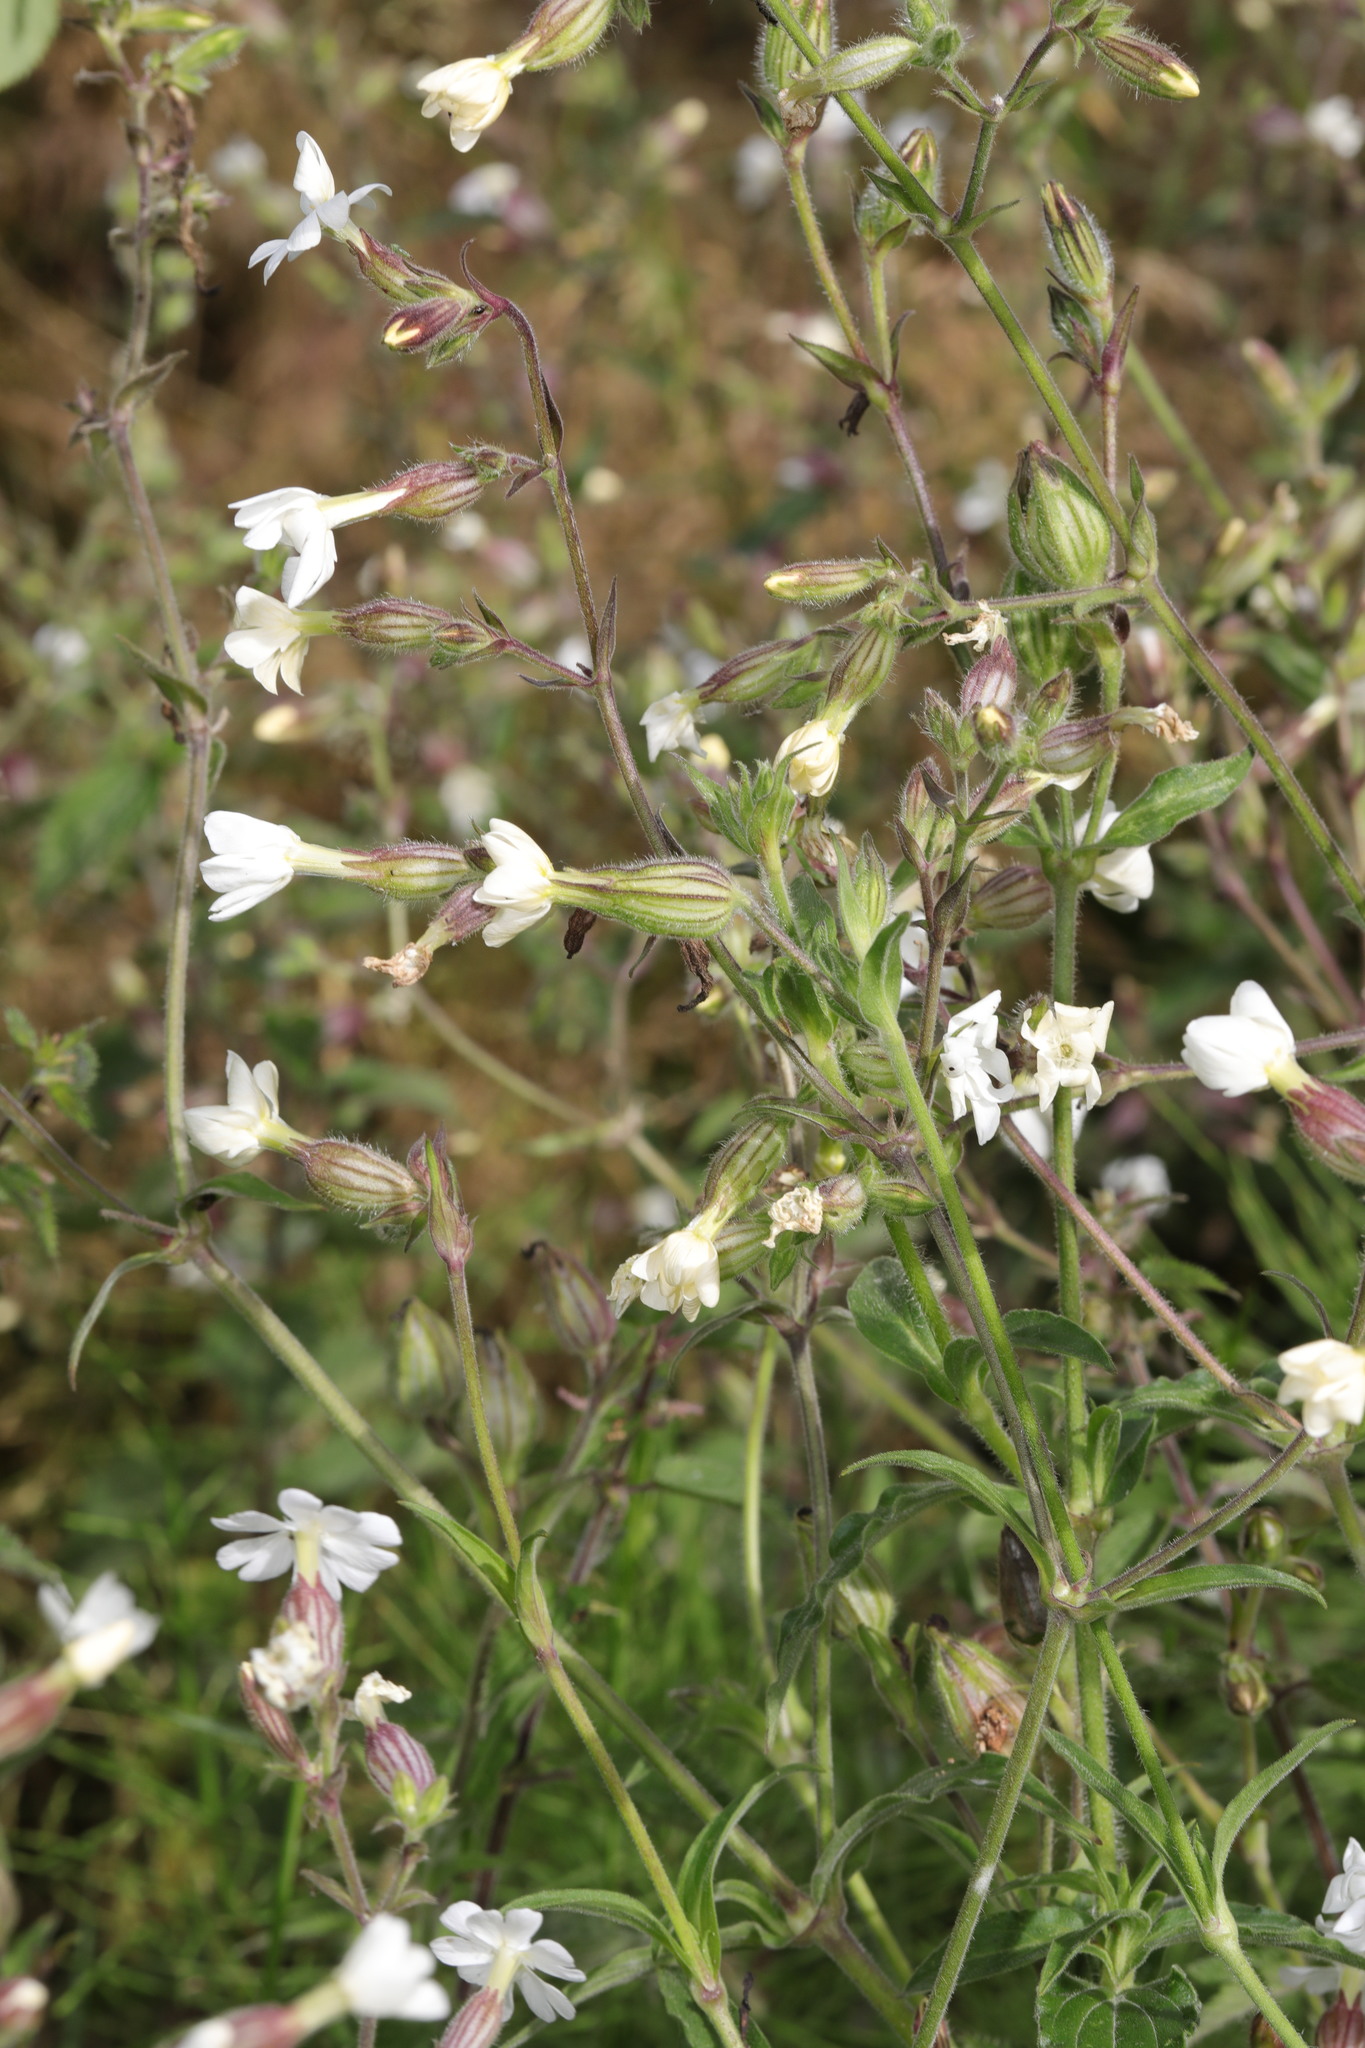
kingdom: Plantae
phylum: Tracheophyta
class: Magnoliopsida
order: Caryophyllales
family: Caryophyllaceae
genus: Silene
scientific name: Silene latifolia
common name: White campion
